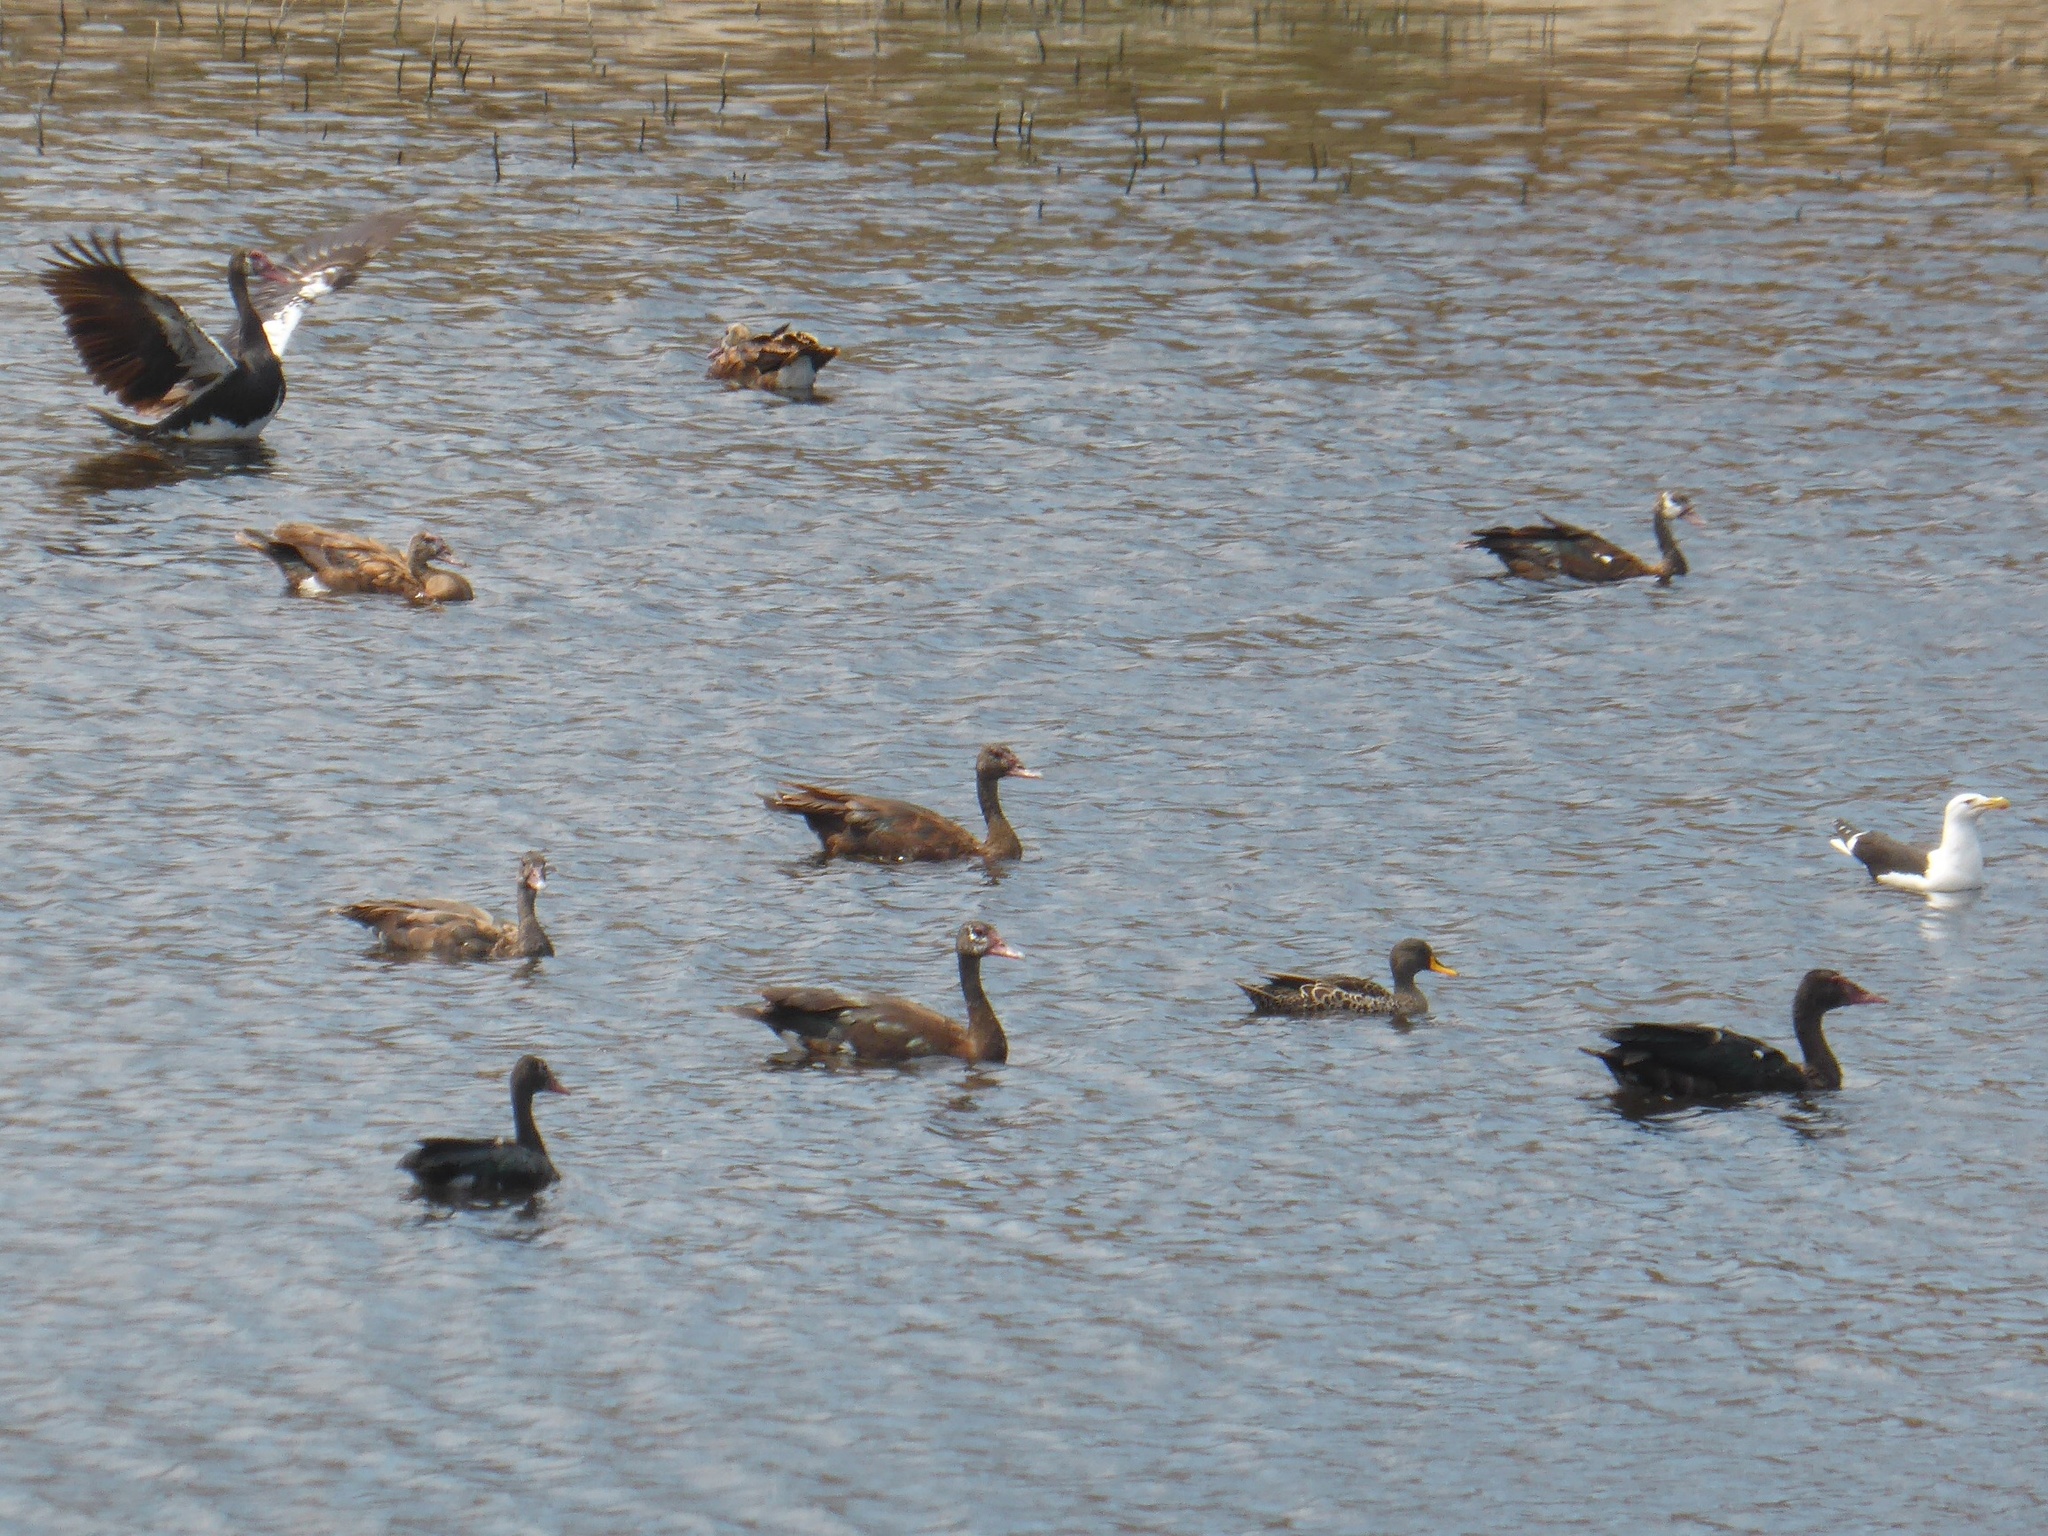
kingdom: Animalia
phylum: Chordata
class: Aves
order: Anseriformes
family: Anatidae
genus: Anas
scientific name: Anas undulata
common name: Yellow-billed duck
